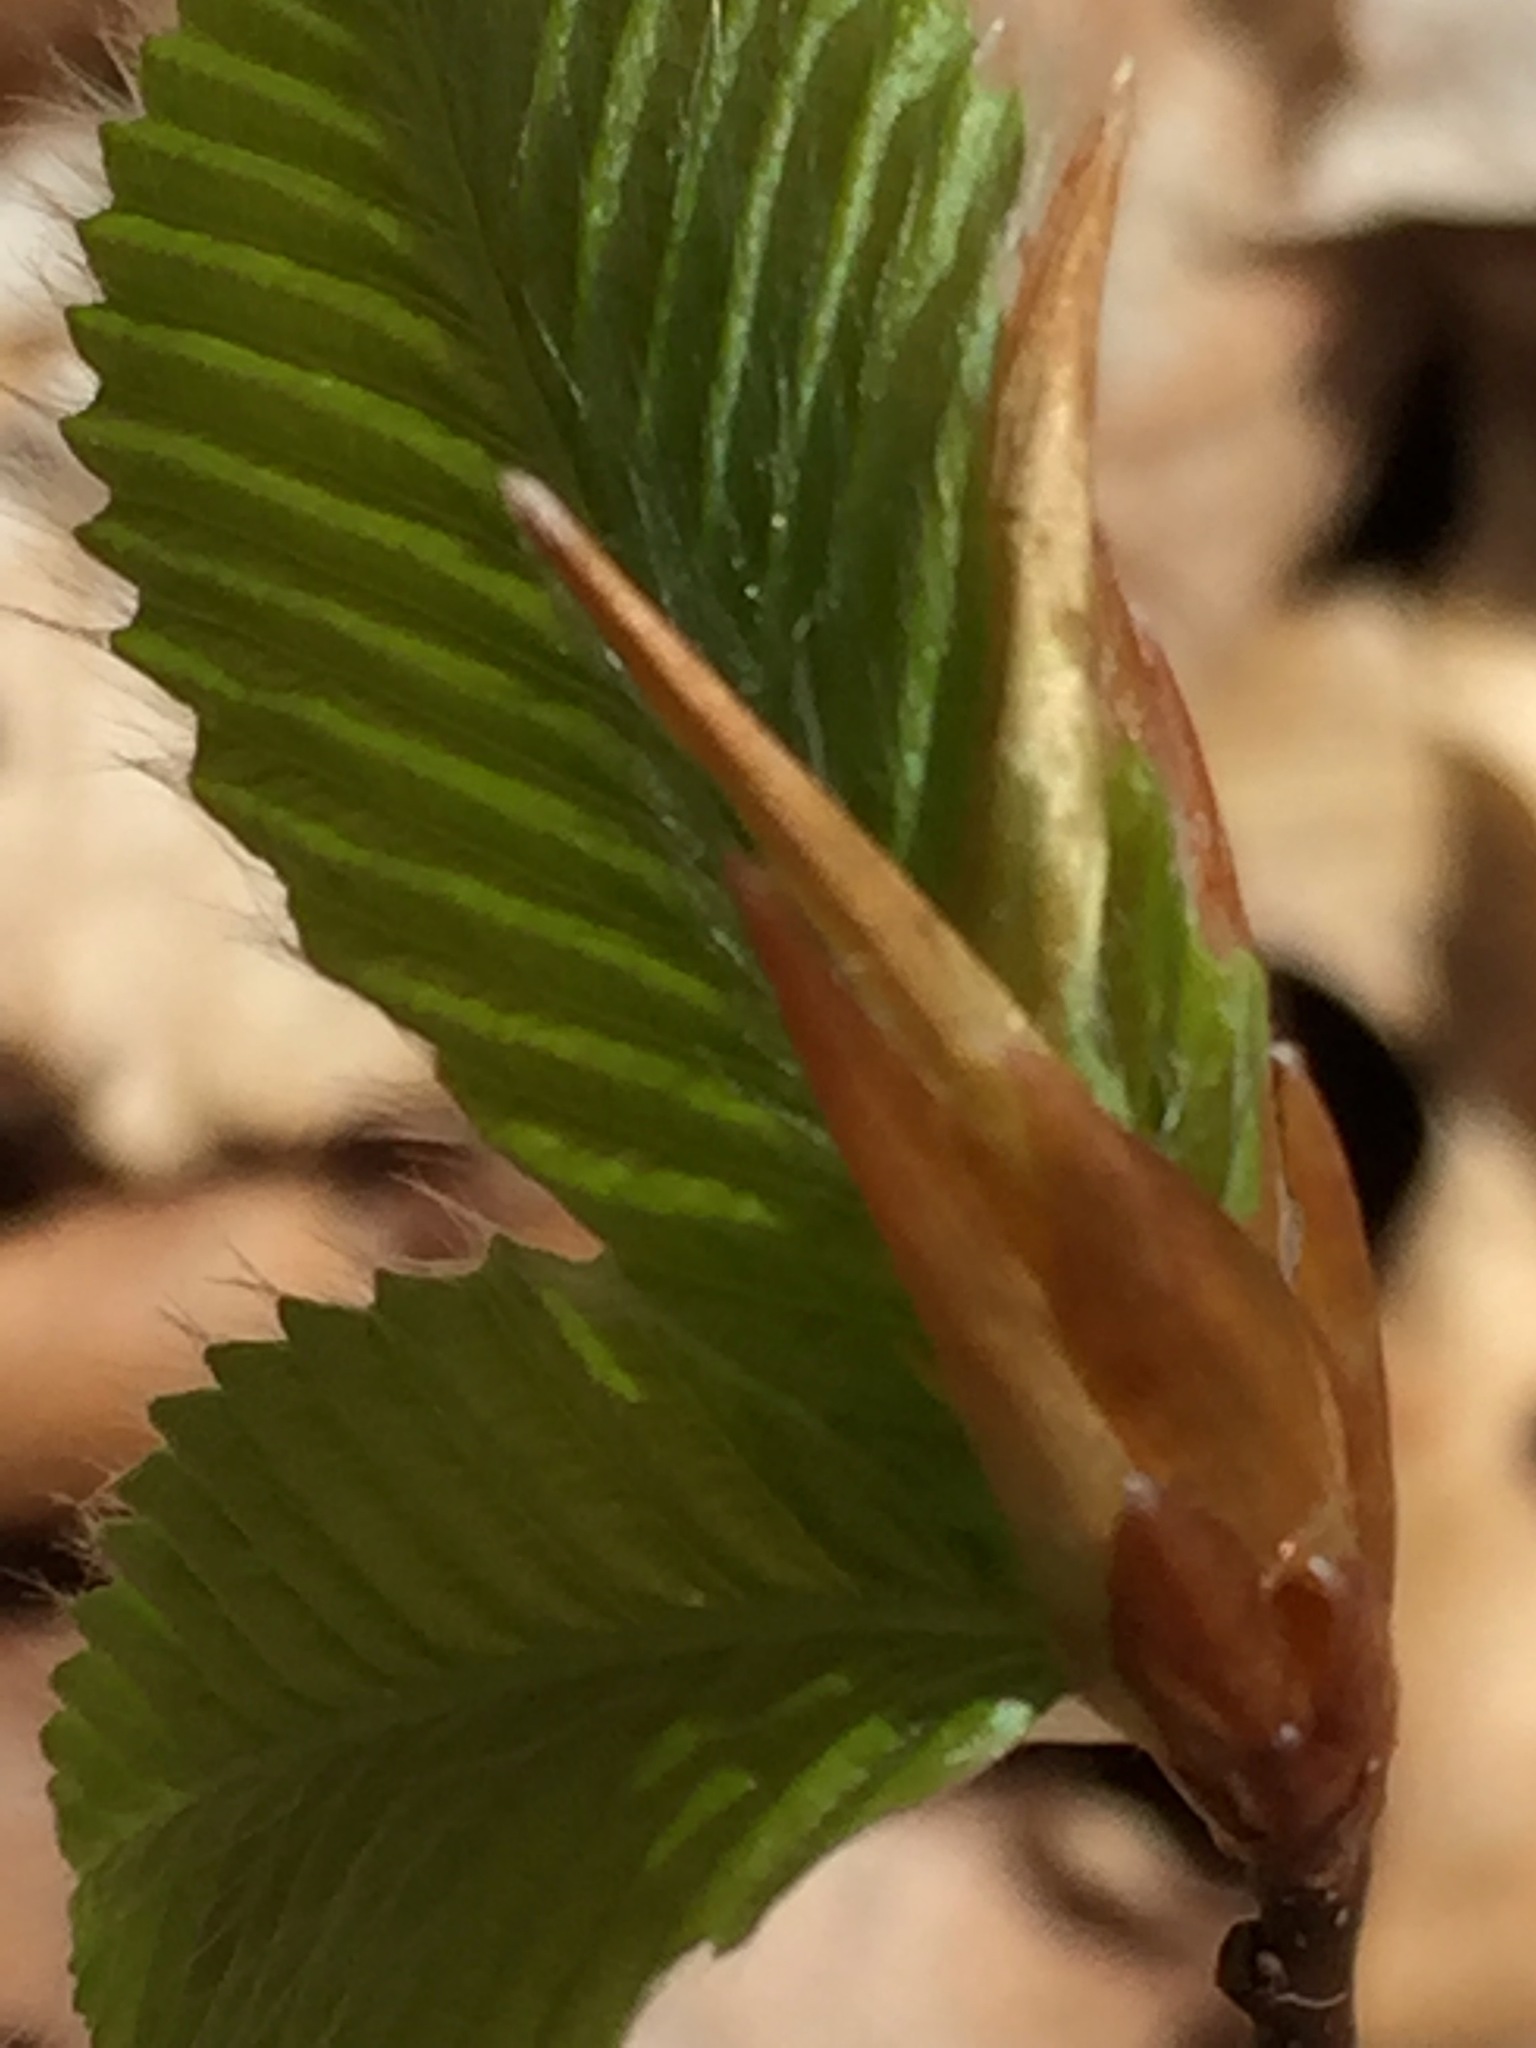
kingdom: Plantae
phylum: Tracheophyta
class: Magnoliopsida
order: Fagales
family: Fagaceae
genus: Fagus
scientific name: Fagus grandifolia
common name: American beech
